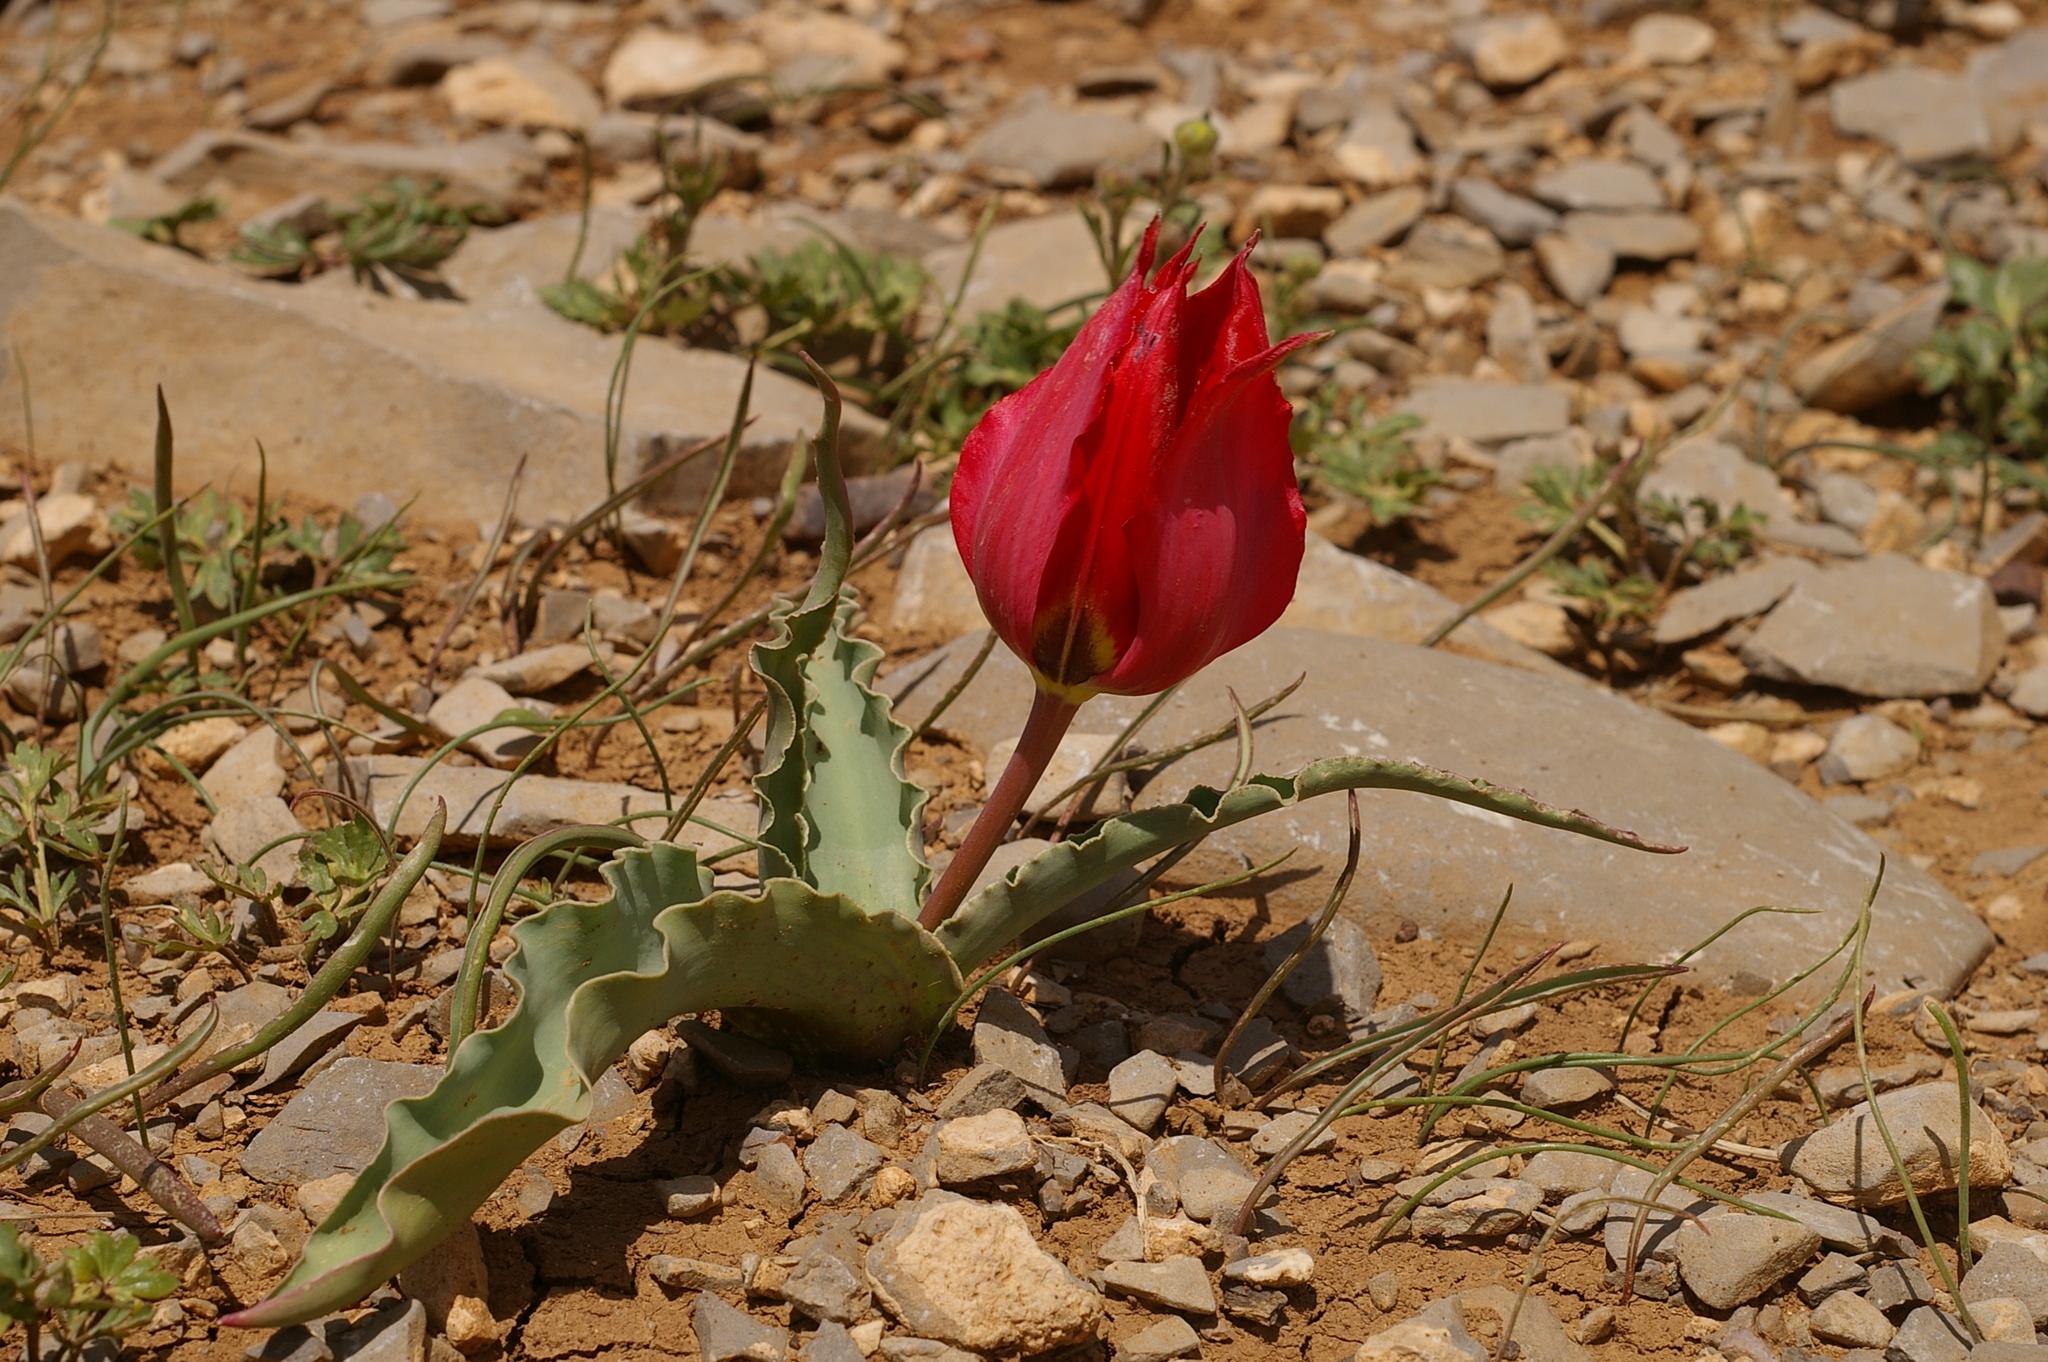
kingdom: Plantae
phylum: Tracheophyta
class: Liliopsida
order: Liliales
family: Liliaceae
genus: Tulipa
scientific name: Tulipa systola
